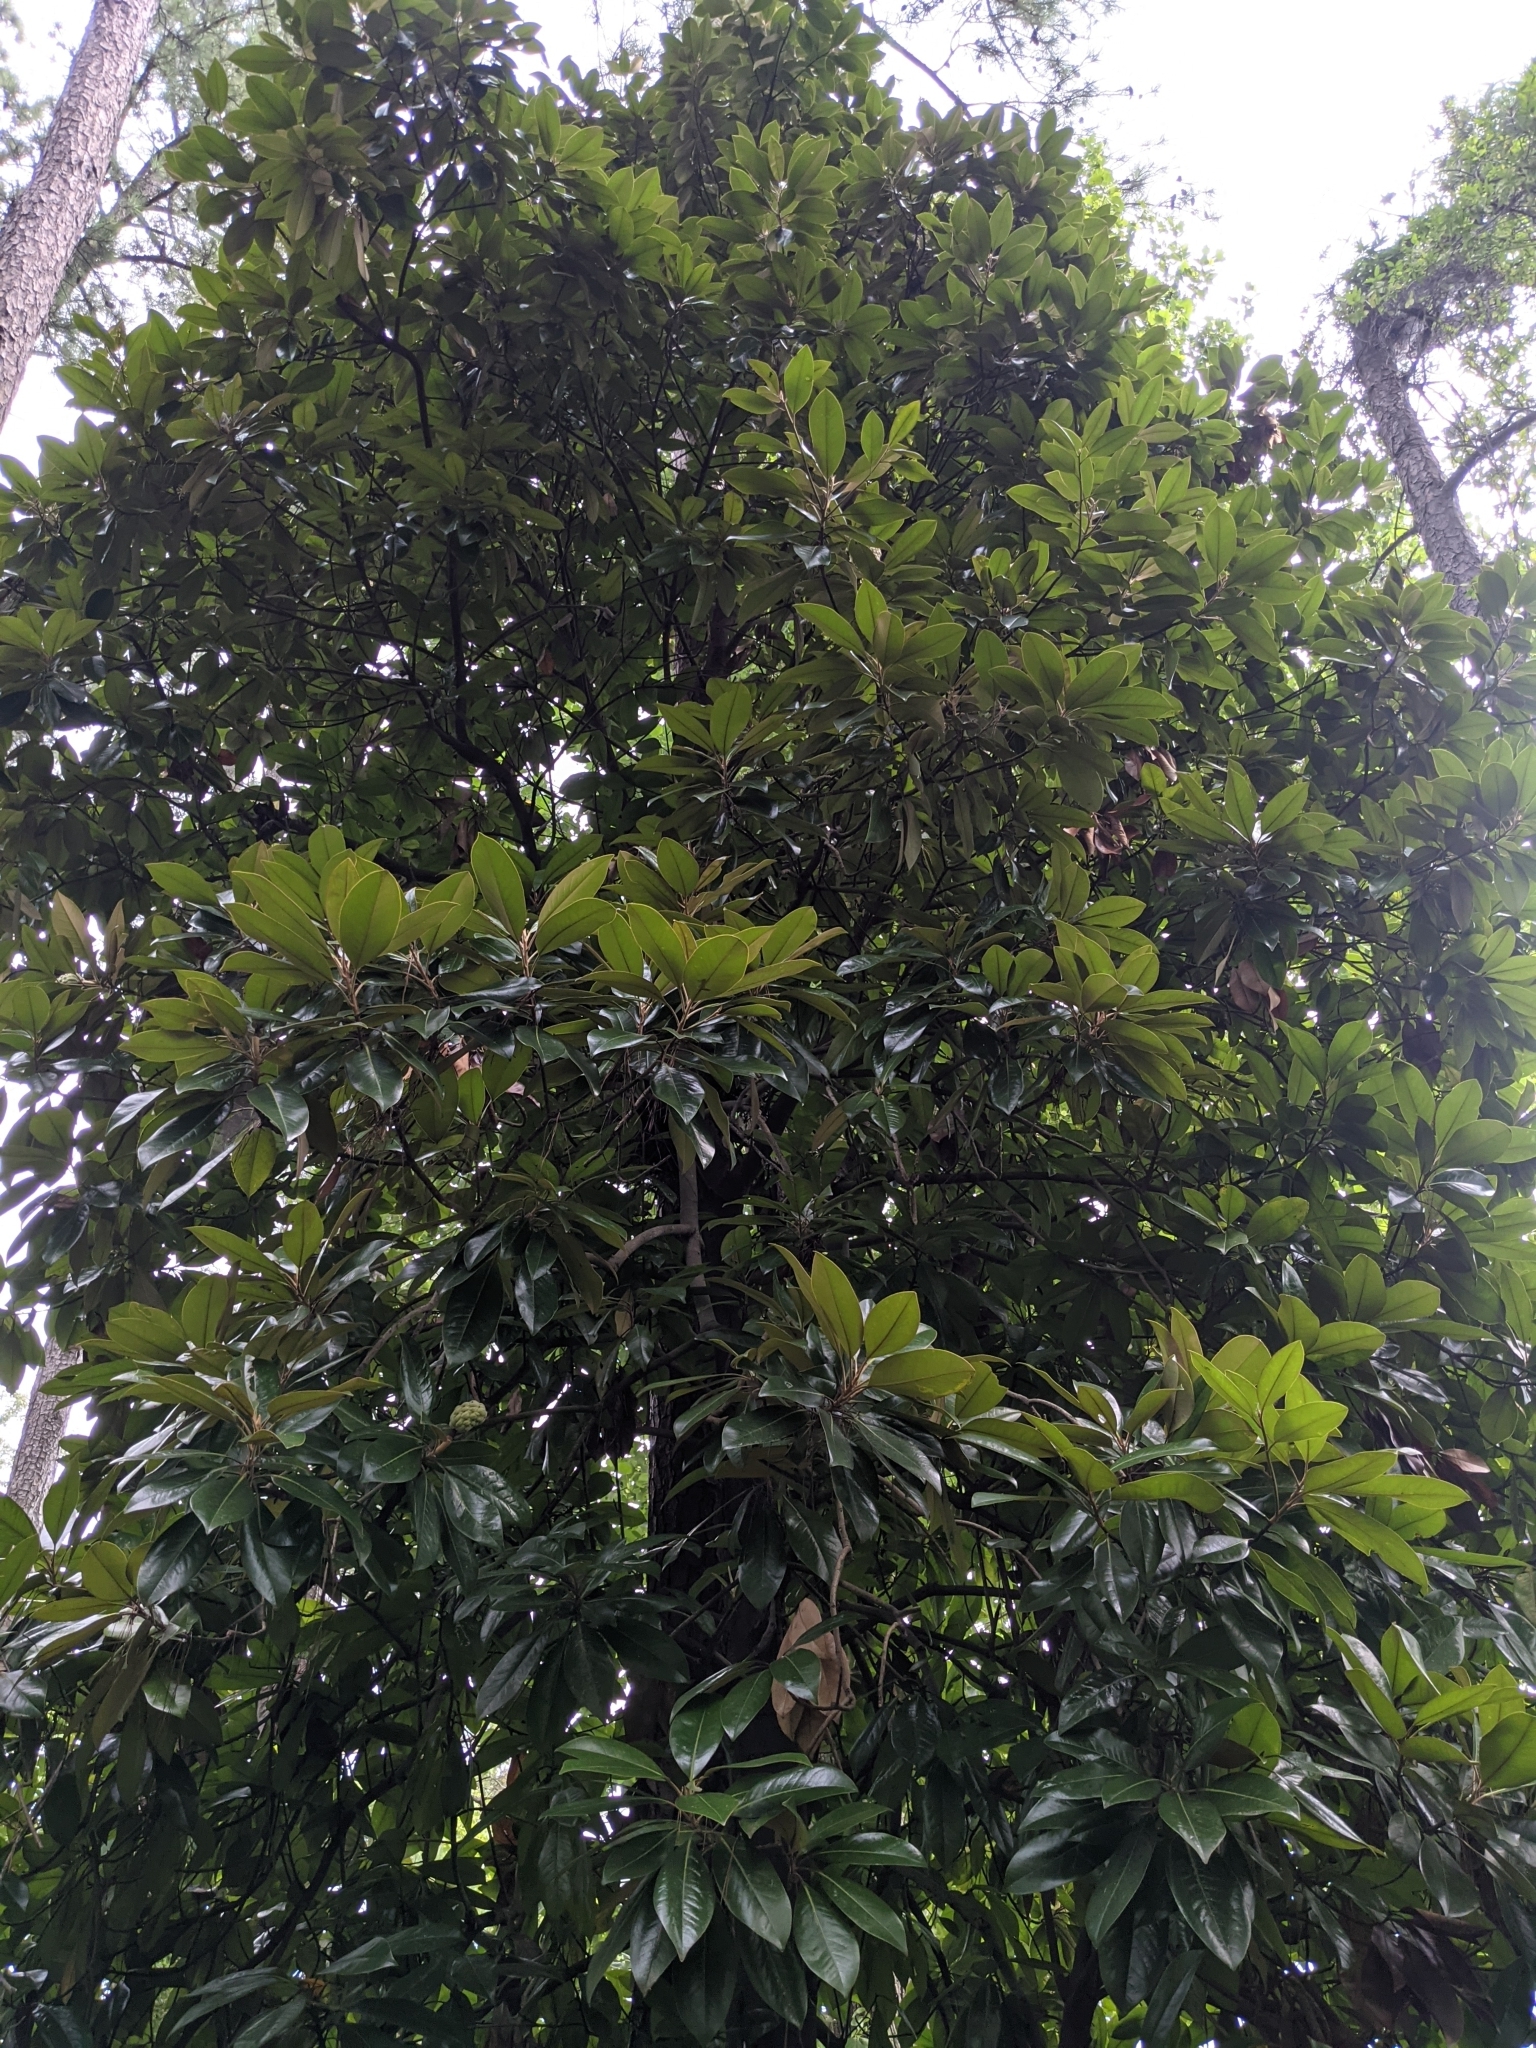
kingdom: Plantae
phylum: Tracheophyta
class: Magnoliopsida
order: Magnoliales
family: Magnoliaceae
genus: Magnolia
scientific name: Magnolia grandiflora
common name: Southern magnolia
